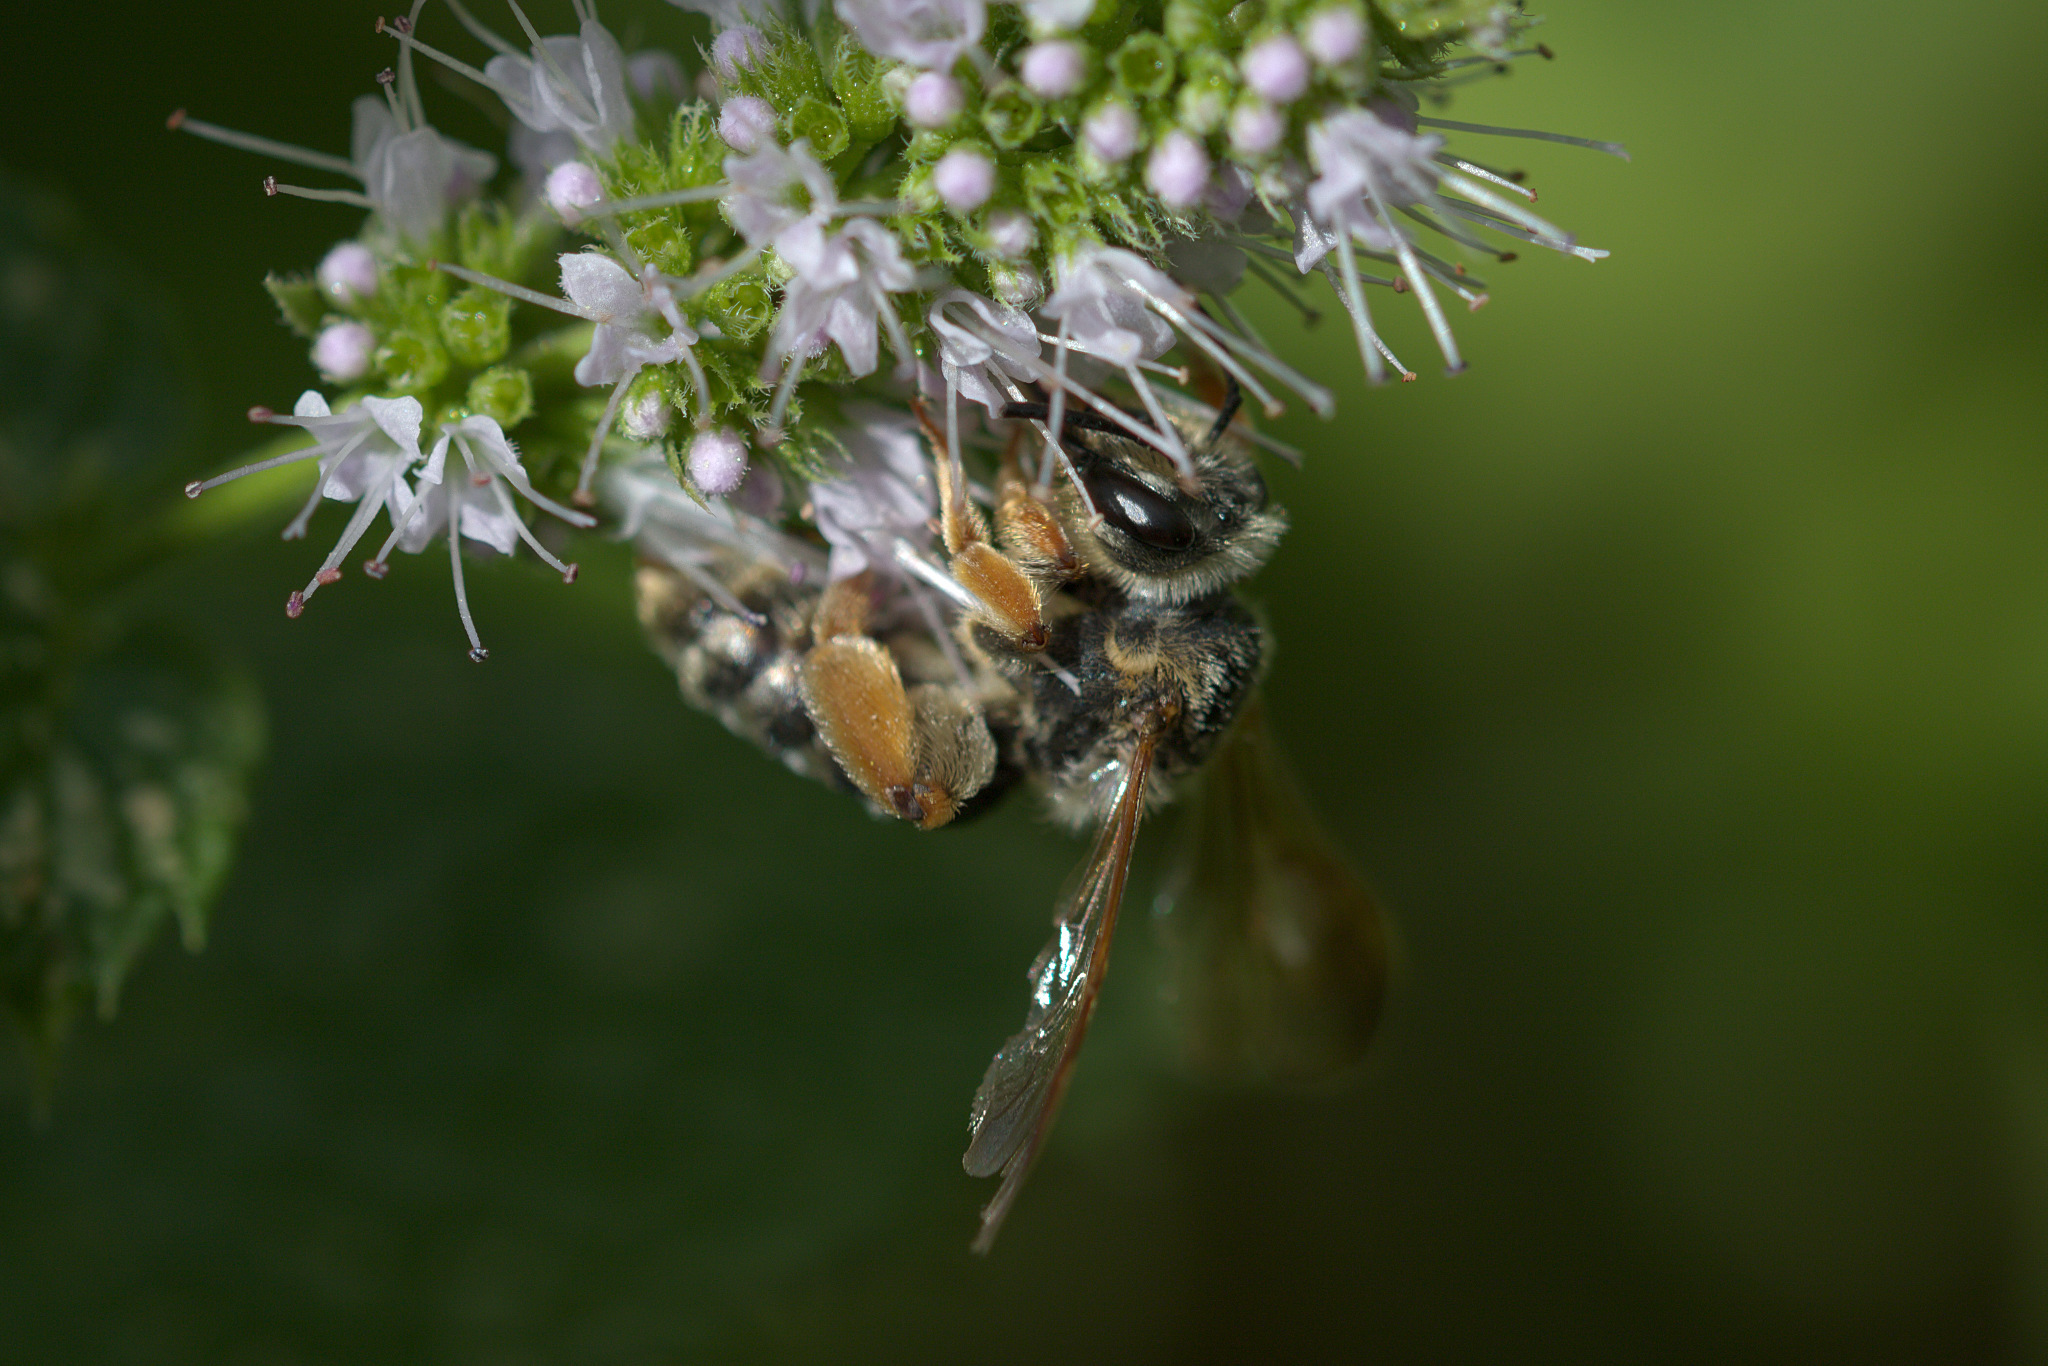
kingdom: Animalia
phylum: Arthropoda
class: Insecta
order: Hymenoptera
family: Andrenidae
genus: Andrena
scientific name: Andrena prunorum
